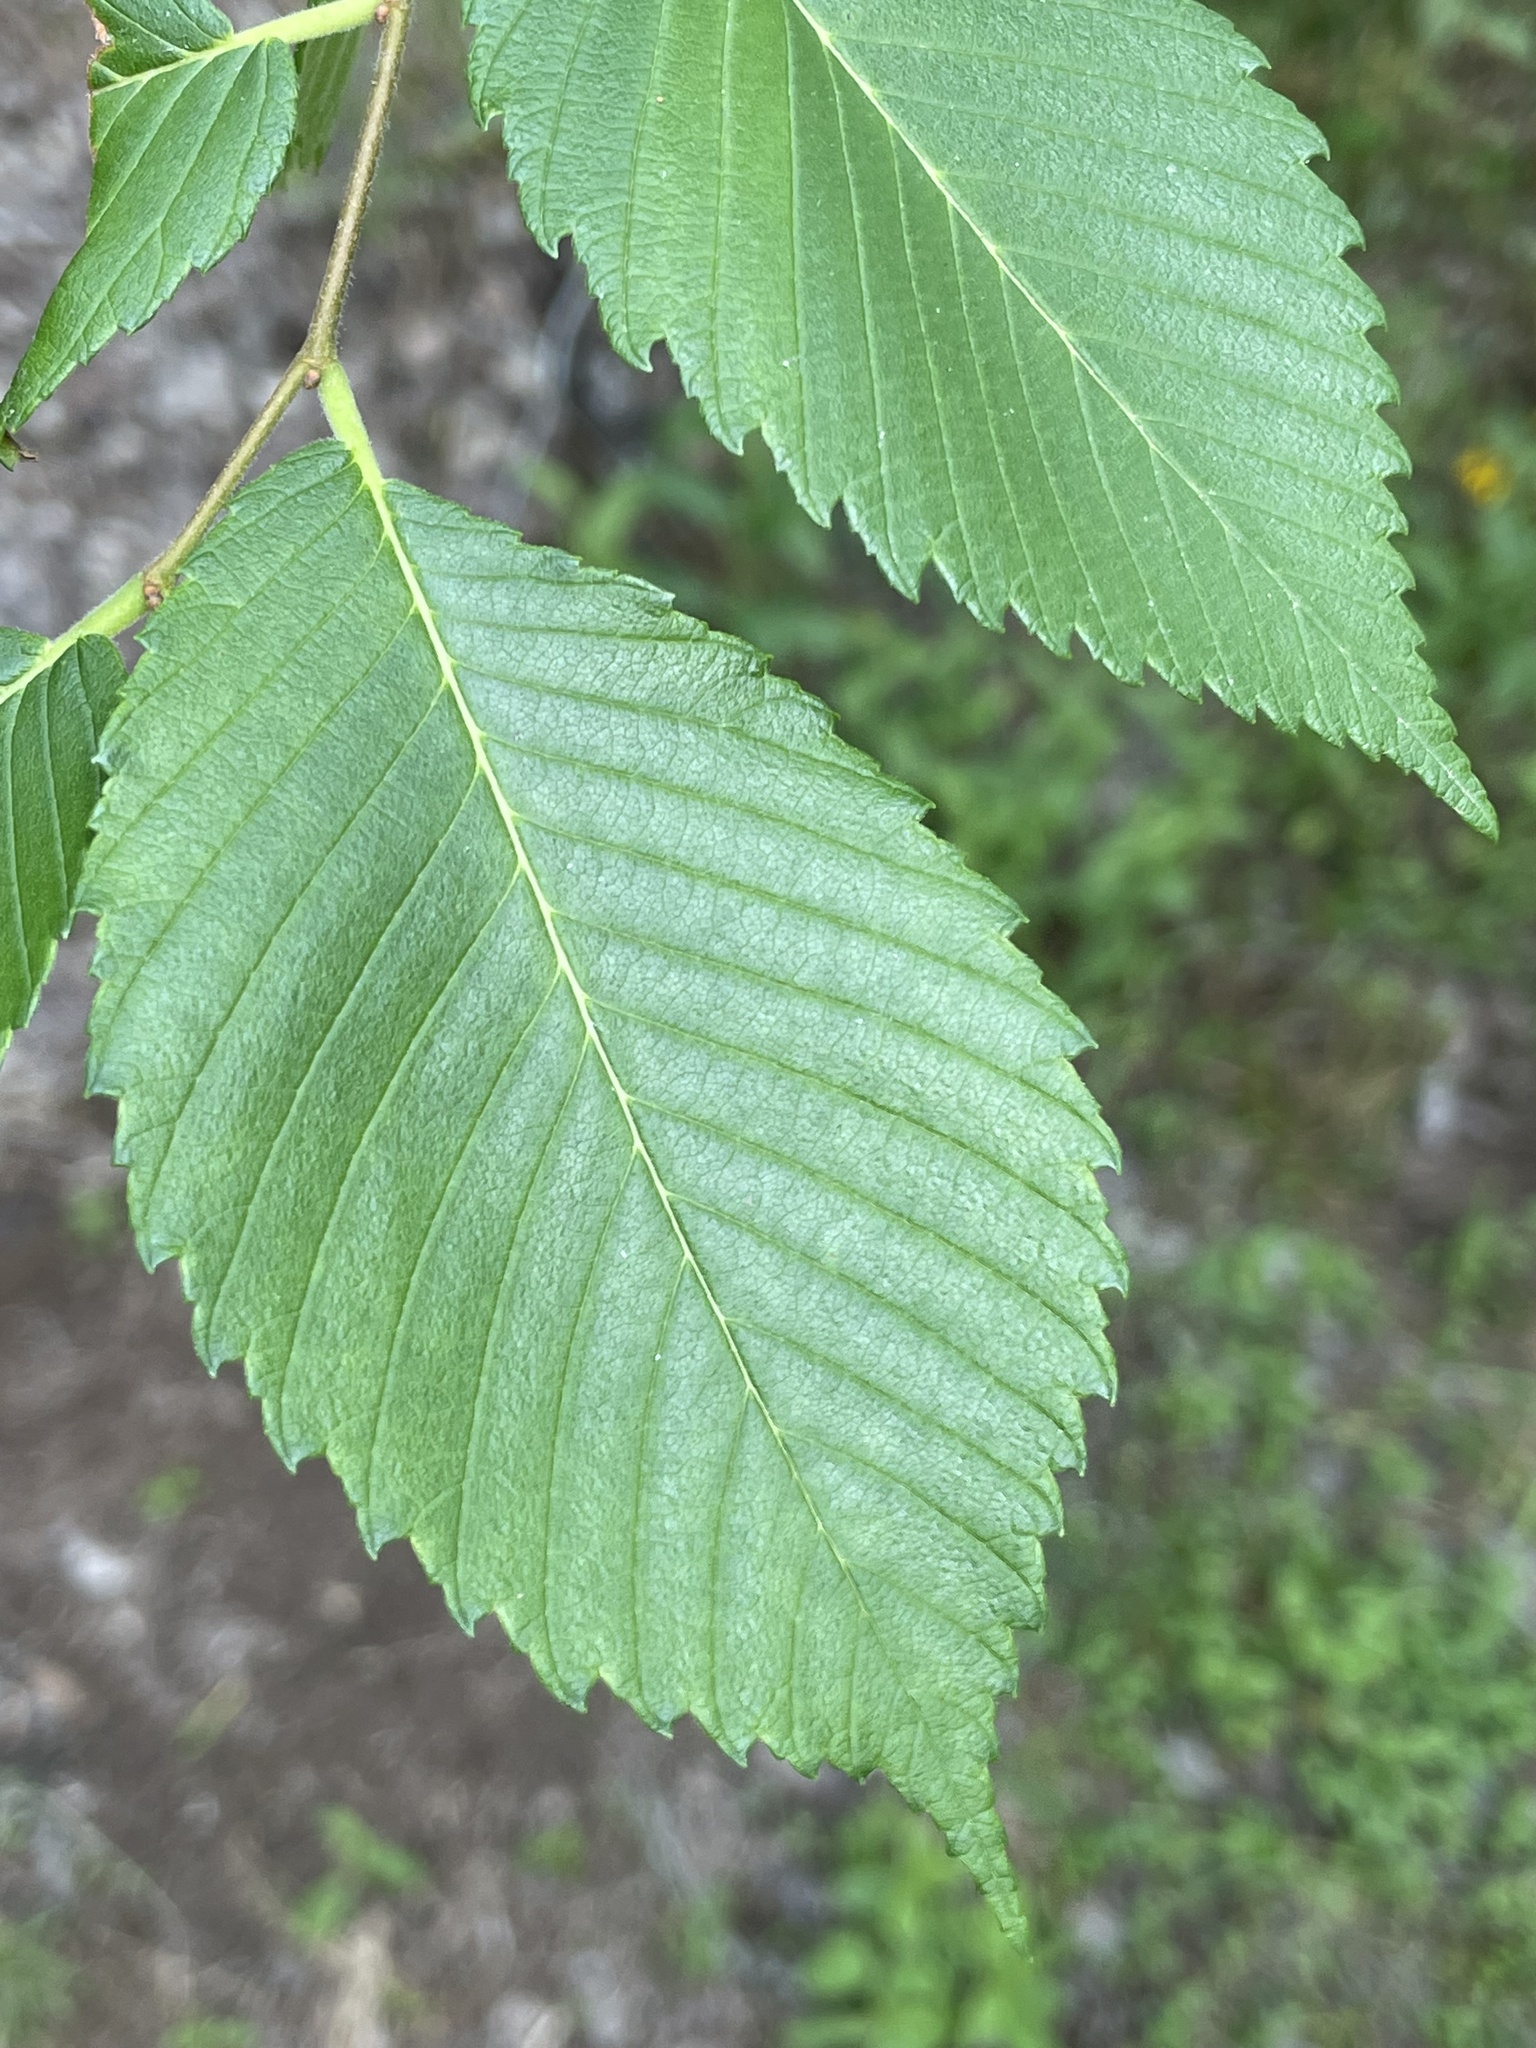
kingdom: Plantae
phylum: Tracheophyta
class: Magnoliopsida
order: Rosales
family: Ulmaceae
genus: Ulmus
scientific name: Ulmus americana
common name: American elm
